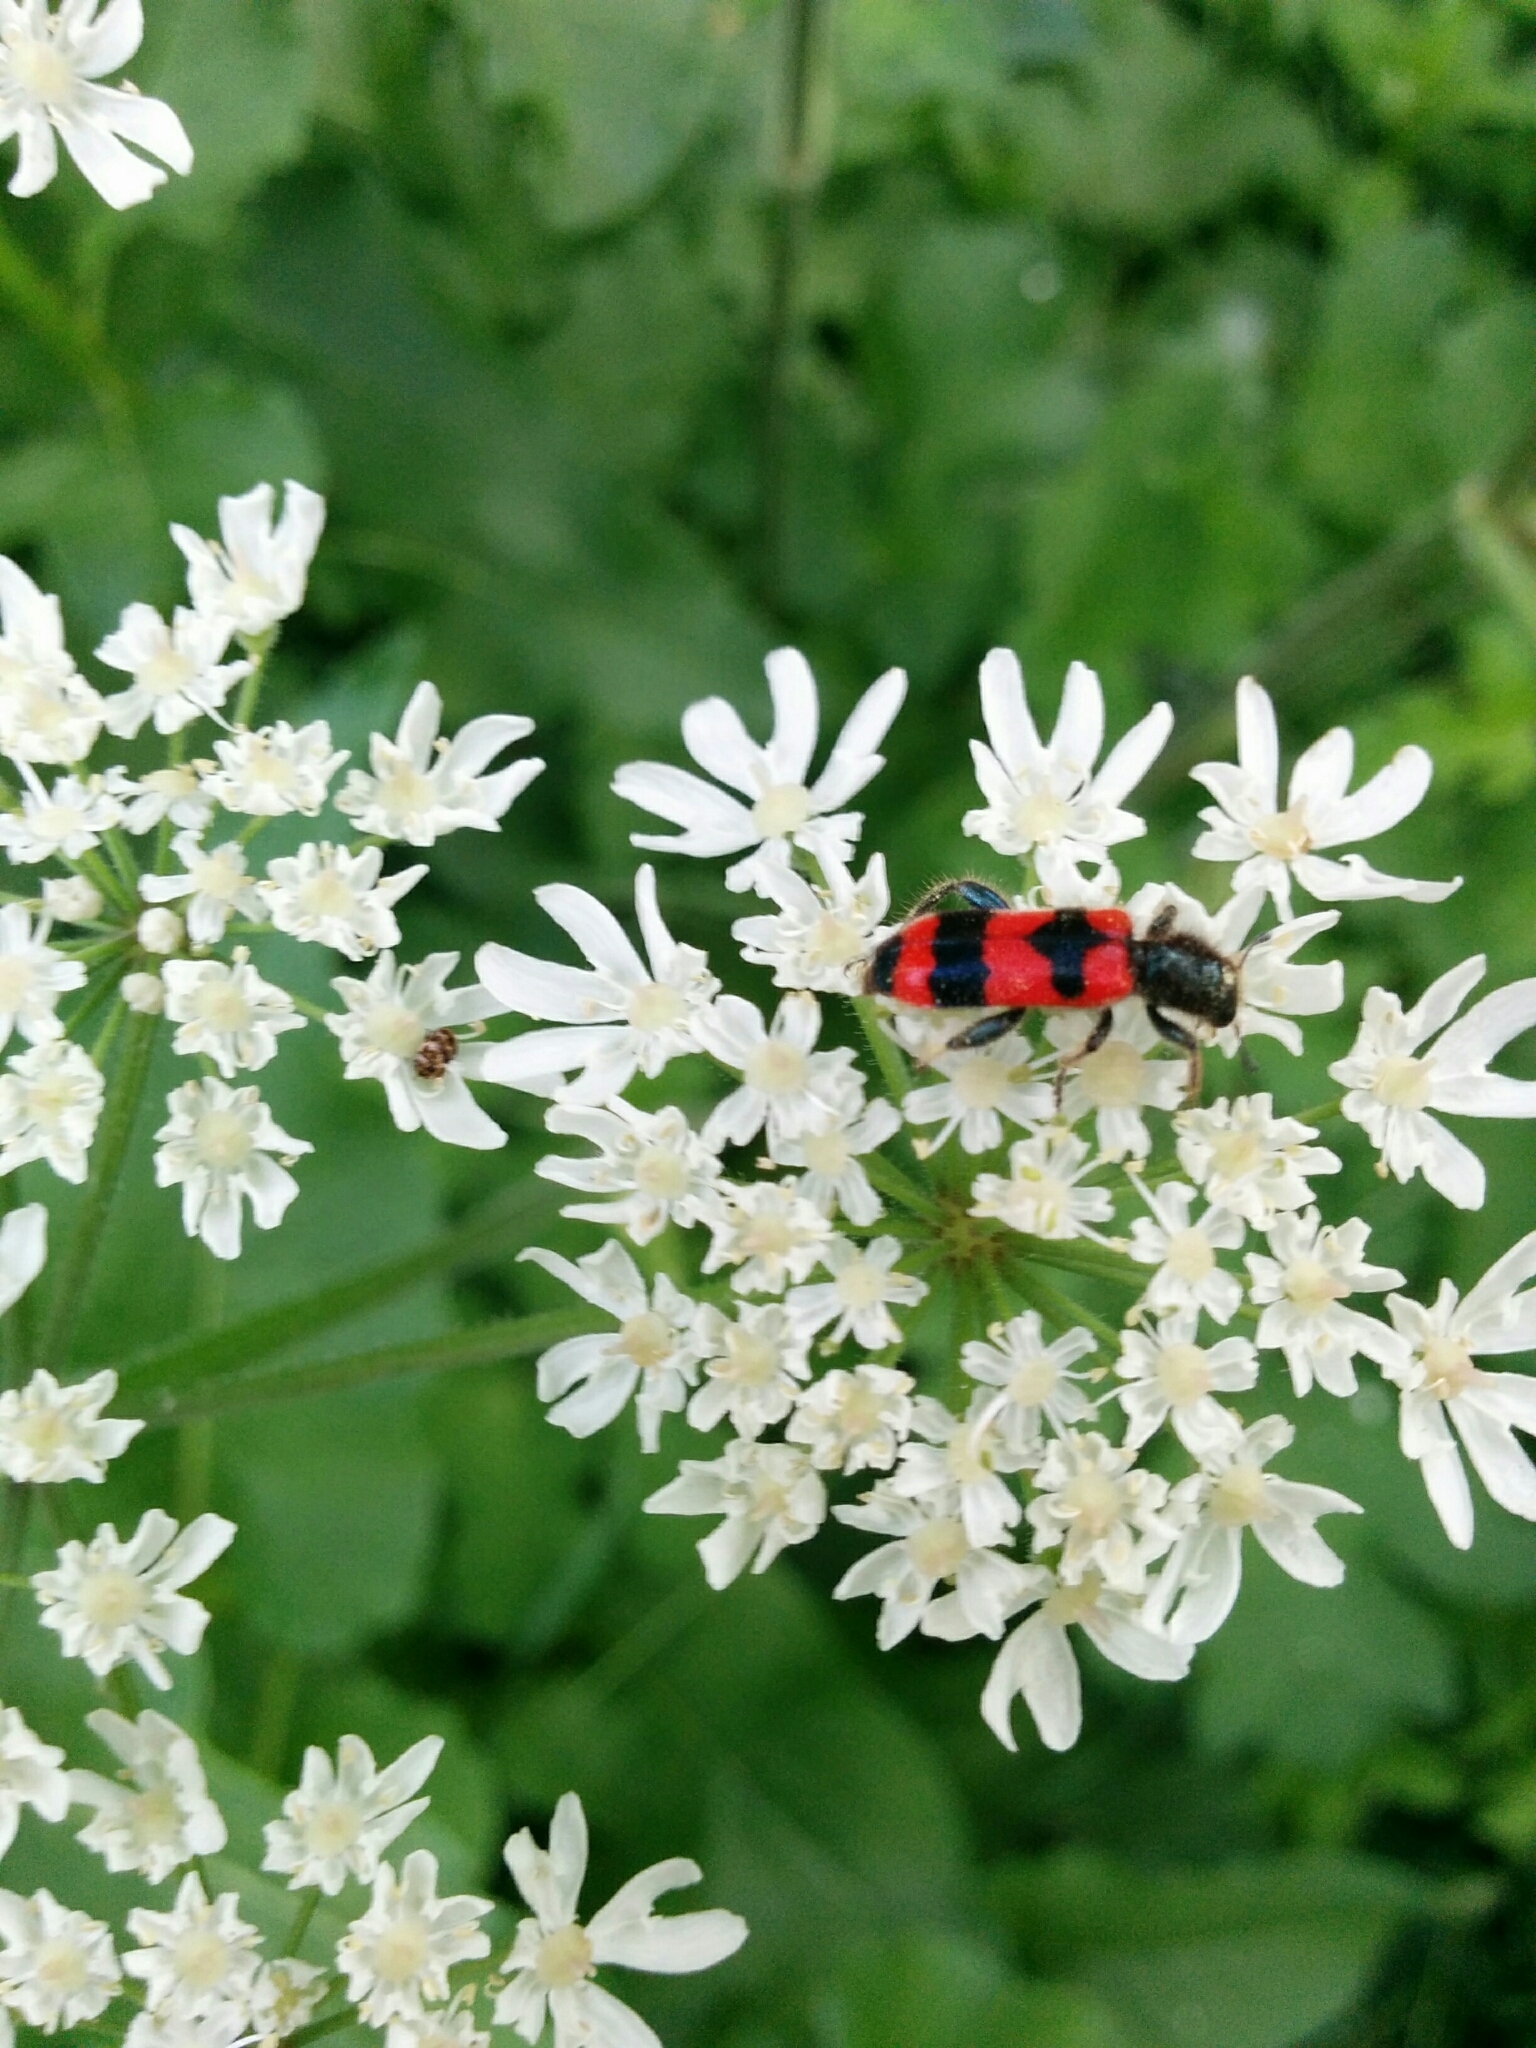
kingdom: Animalia
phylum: Arthropoda
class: Insecta
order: Coleoptera
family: Cleridae
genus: Trichodes
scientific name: Trichodes apiarius
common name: Bee-eating beetle
